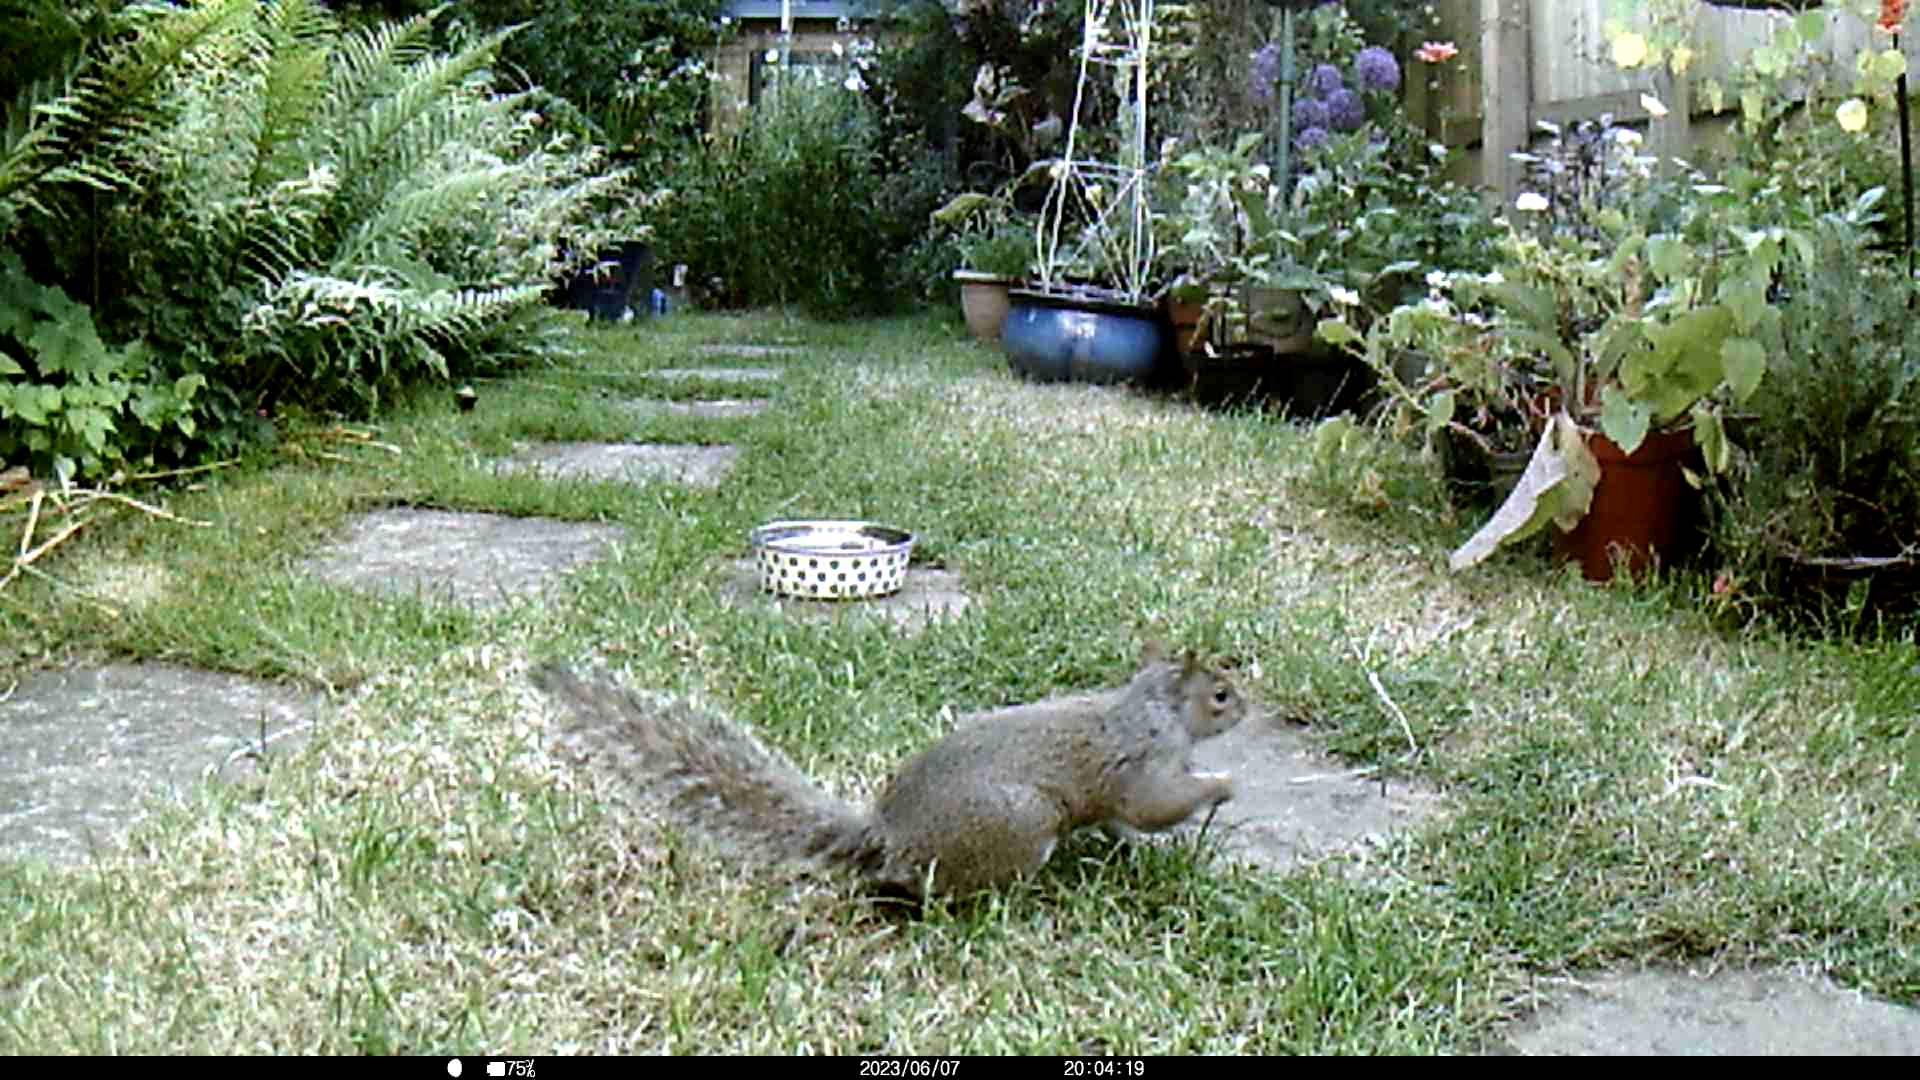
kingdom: Animalia
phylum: Chordata
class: Mammalia
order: Rodentia
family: Sciuridae
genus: Sciurus
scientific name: Sciurus carolinensis
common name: Eastern gray squirrel
